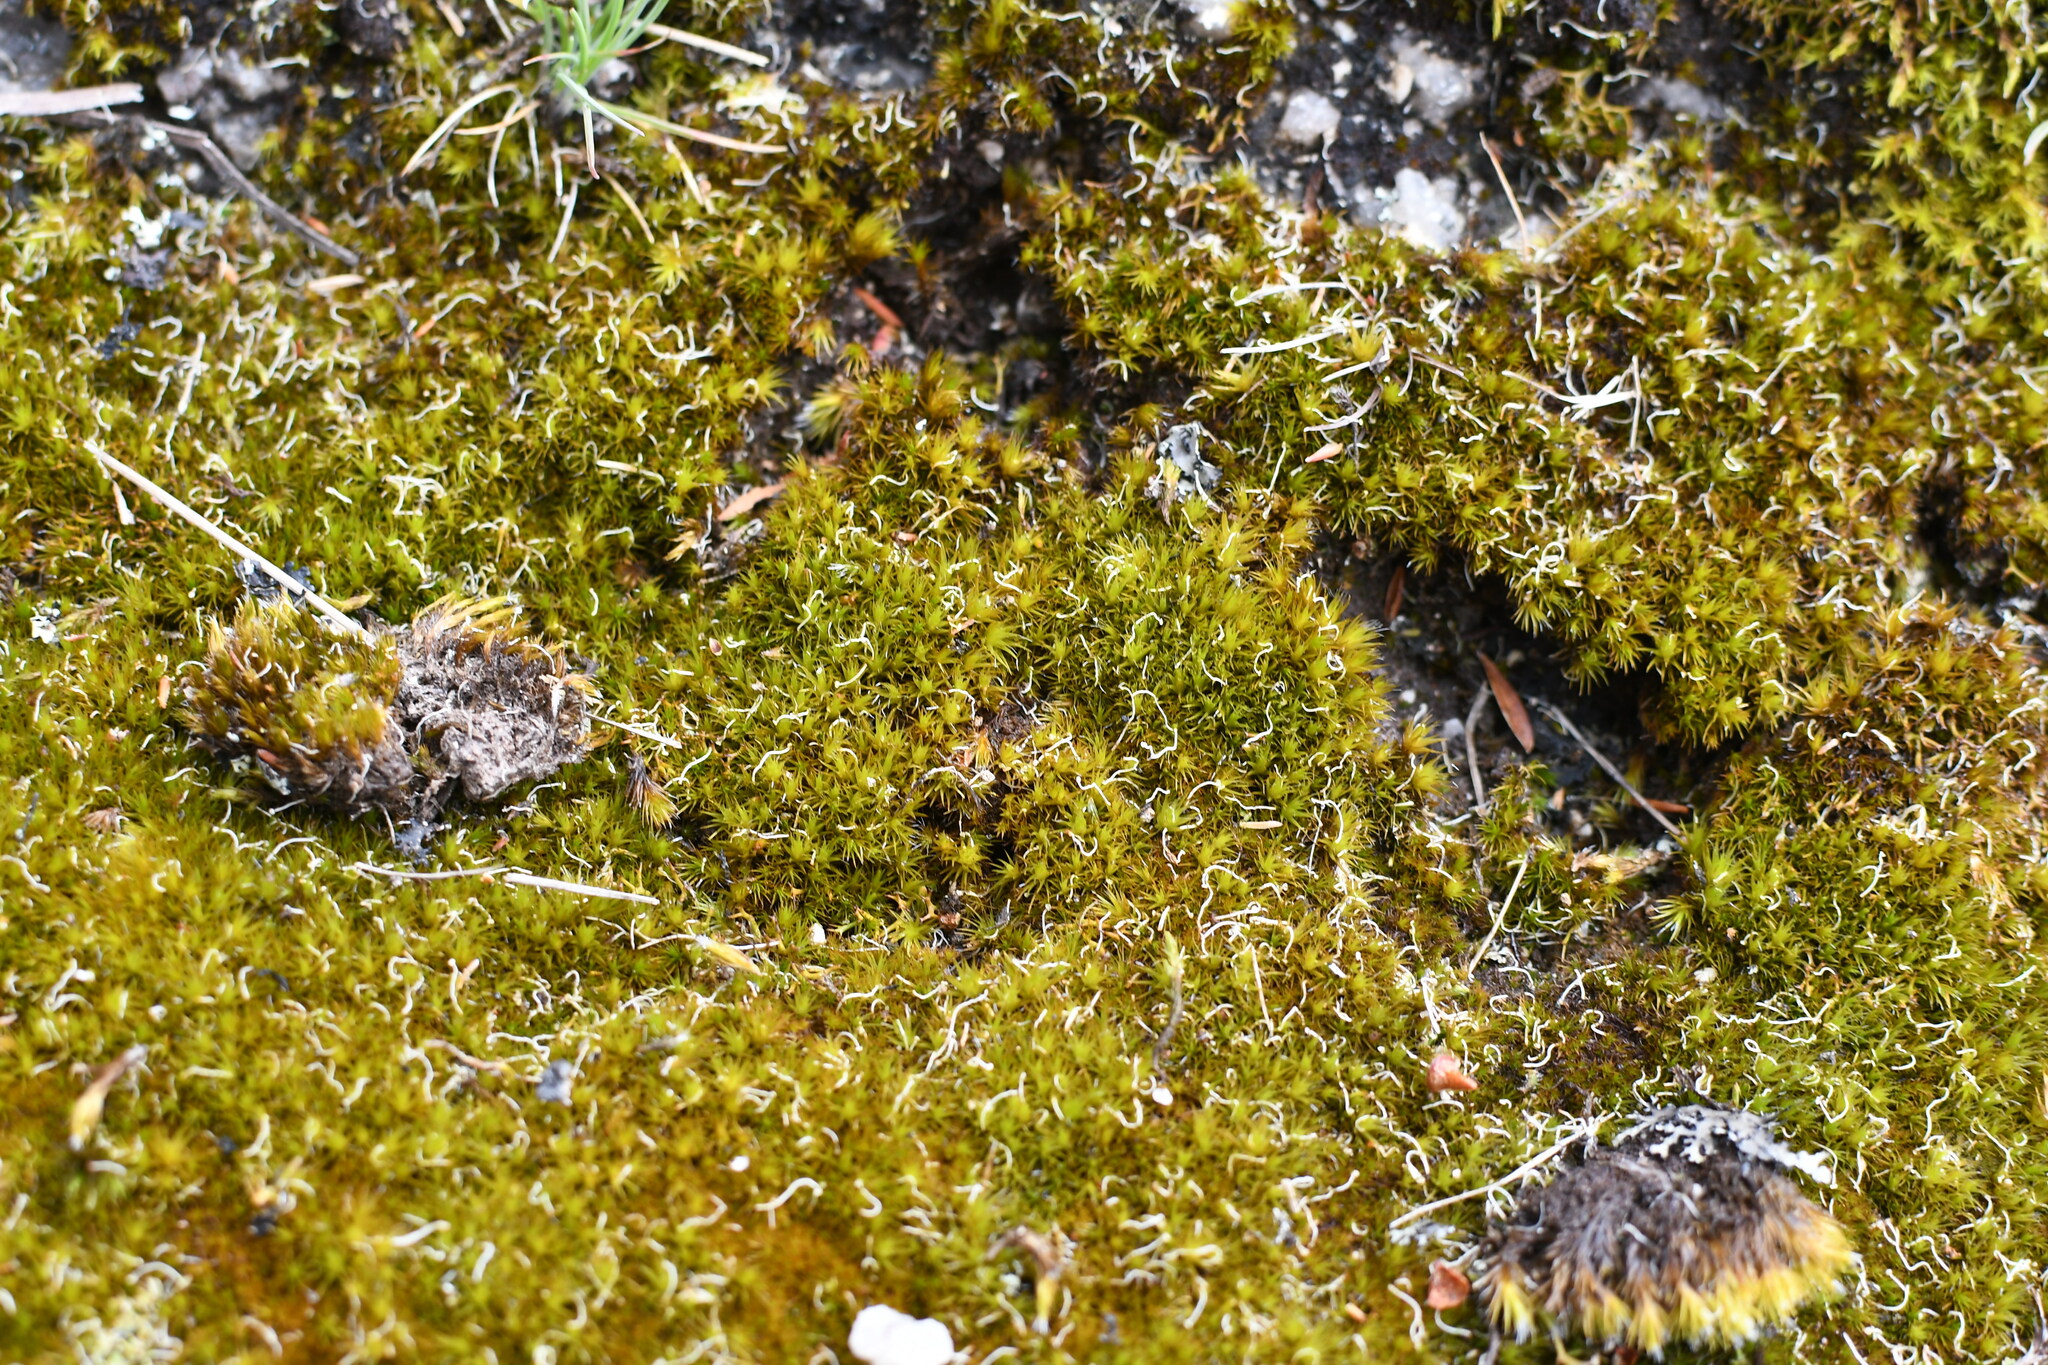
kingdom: Plantae
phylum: Bryophyta
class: Bryopsida
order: Dicranales
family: Leucobryaceae
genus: Campylopus
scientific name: Campylopus introflexus
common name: Heath star moss
